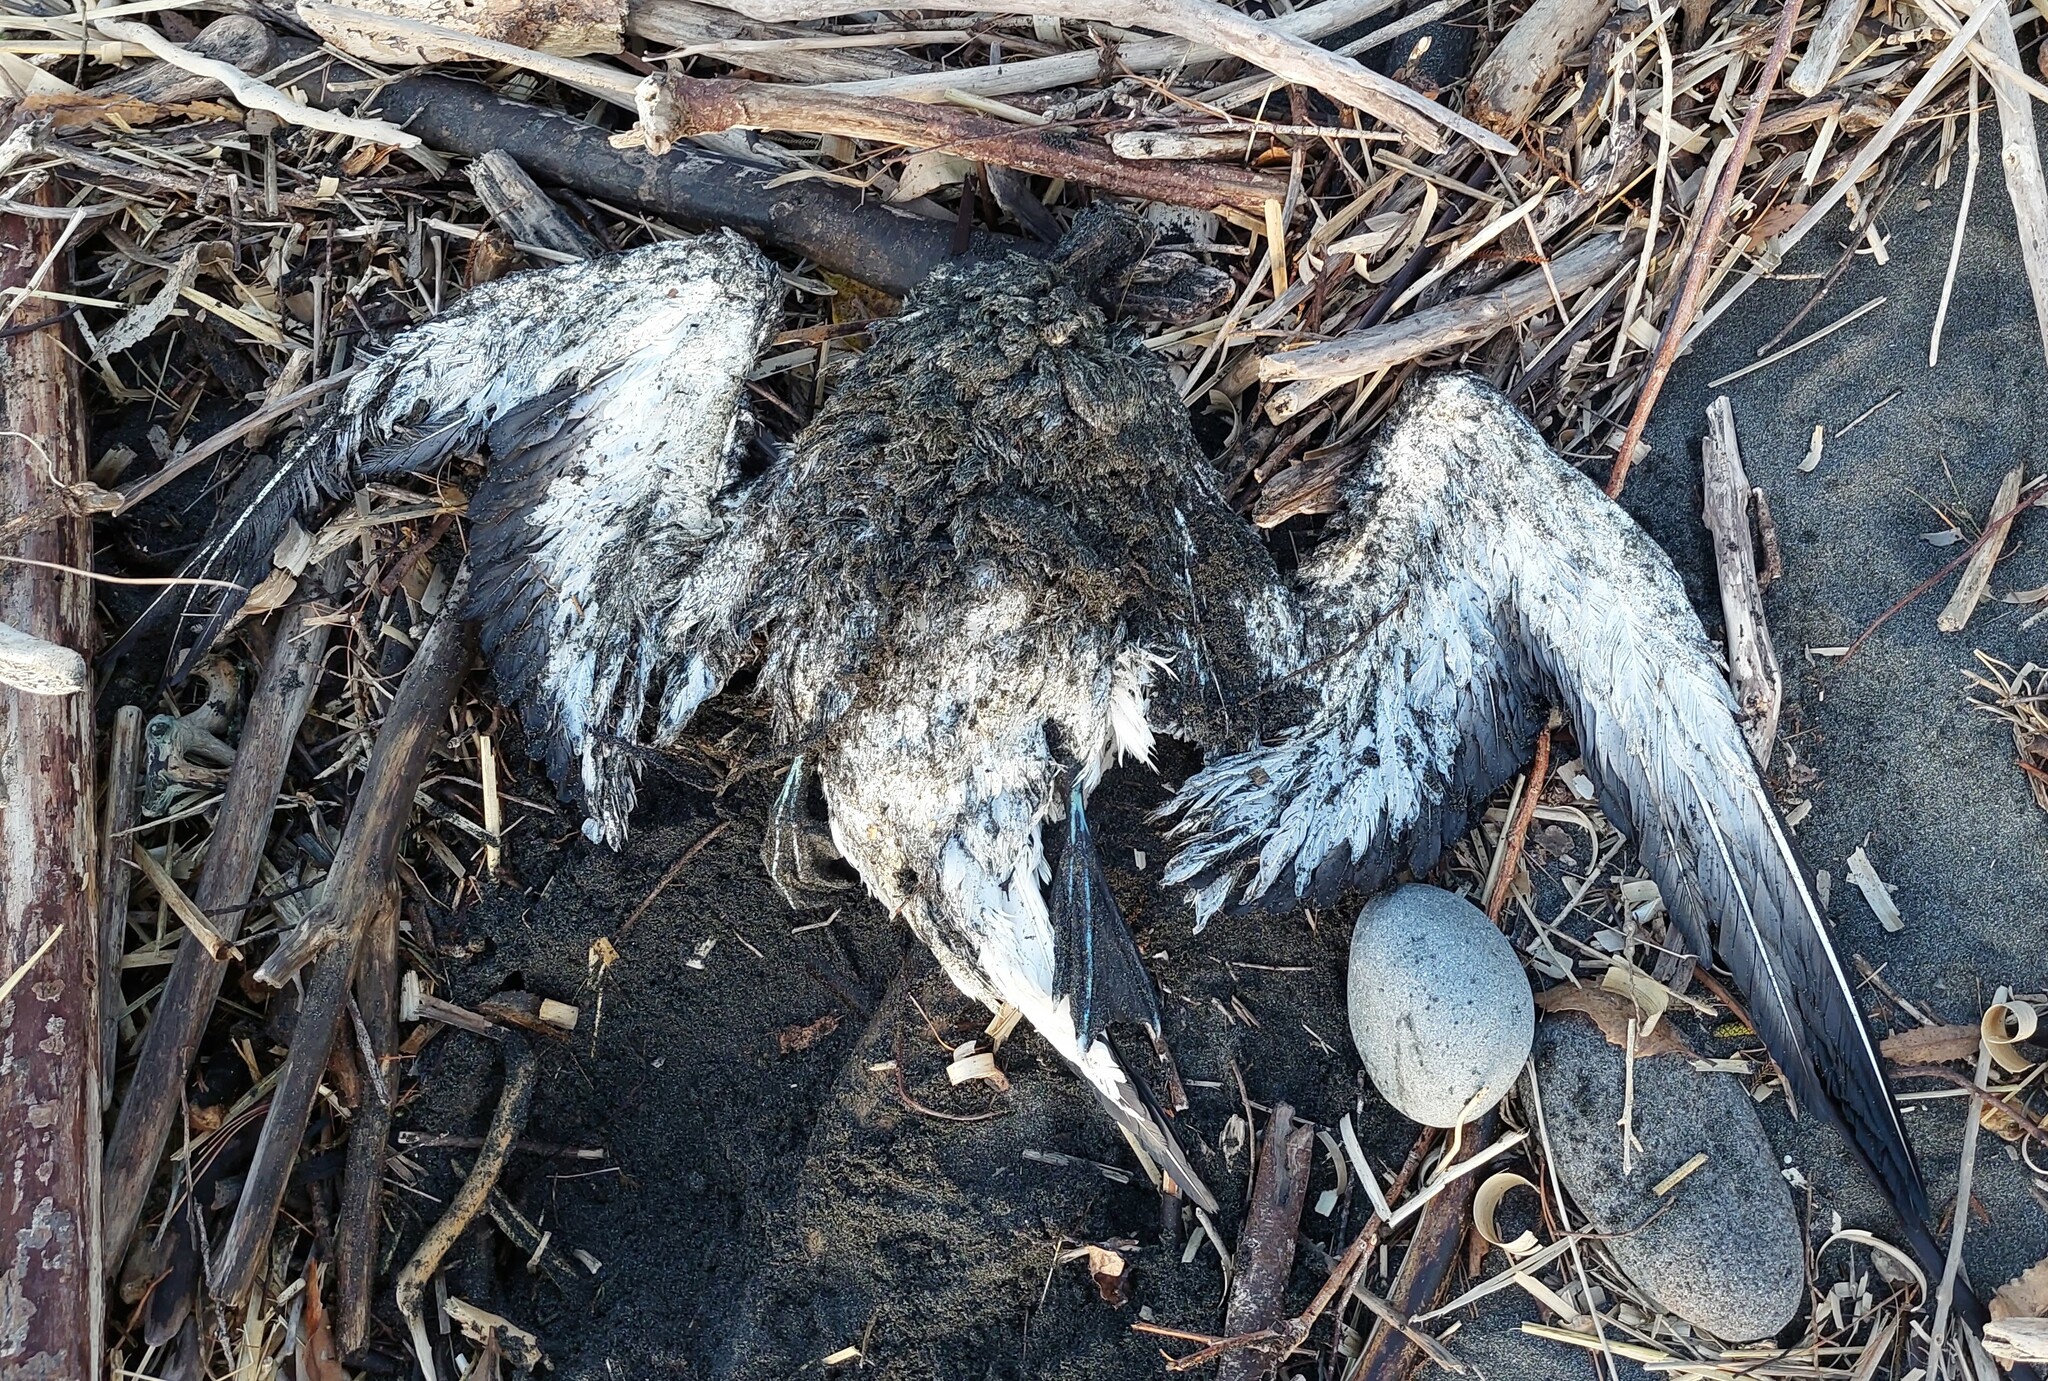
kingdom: Animalia
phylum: Chordata
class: Aves
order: Suliformes
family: Sulidae
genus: Morus
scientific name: Morus serrator
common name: Australasian gannet
